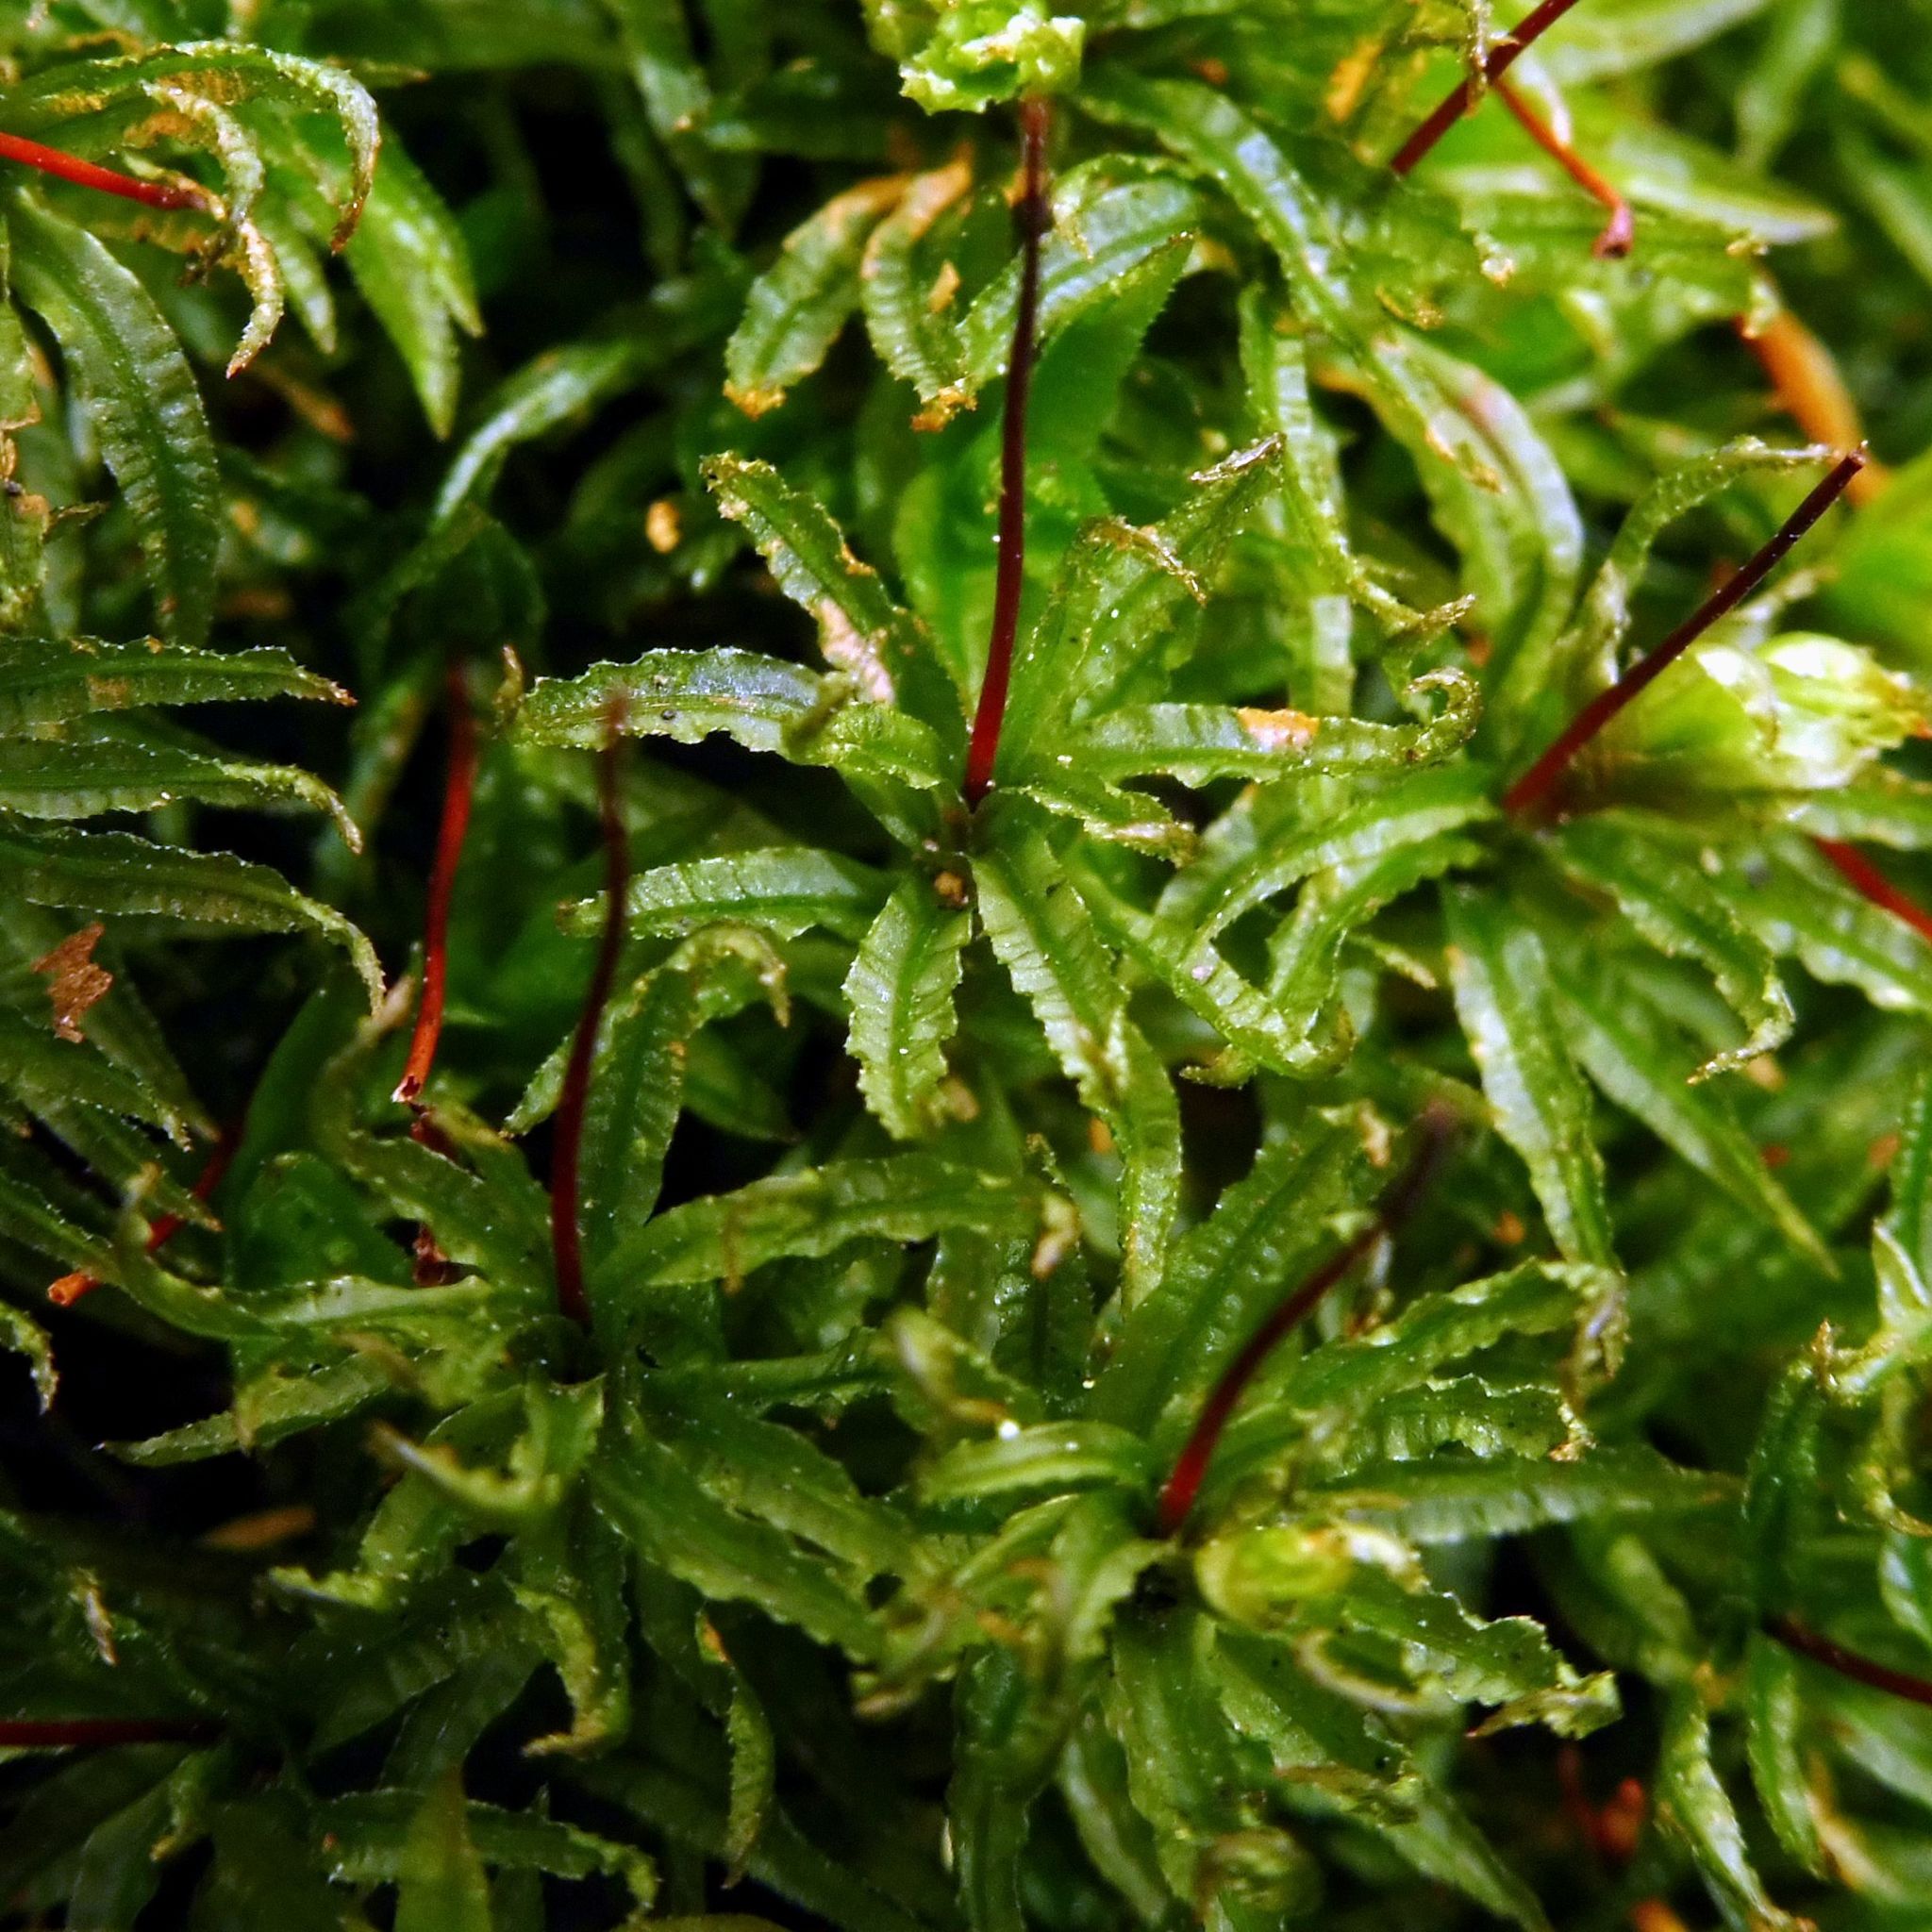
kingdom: Plantae
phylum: Bryophyta
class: Polytrichopsida
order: Polytrichales
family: Polytrichaceae
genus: Atrichum
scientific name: Atrichum undulatum
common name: Common smoothcap
